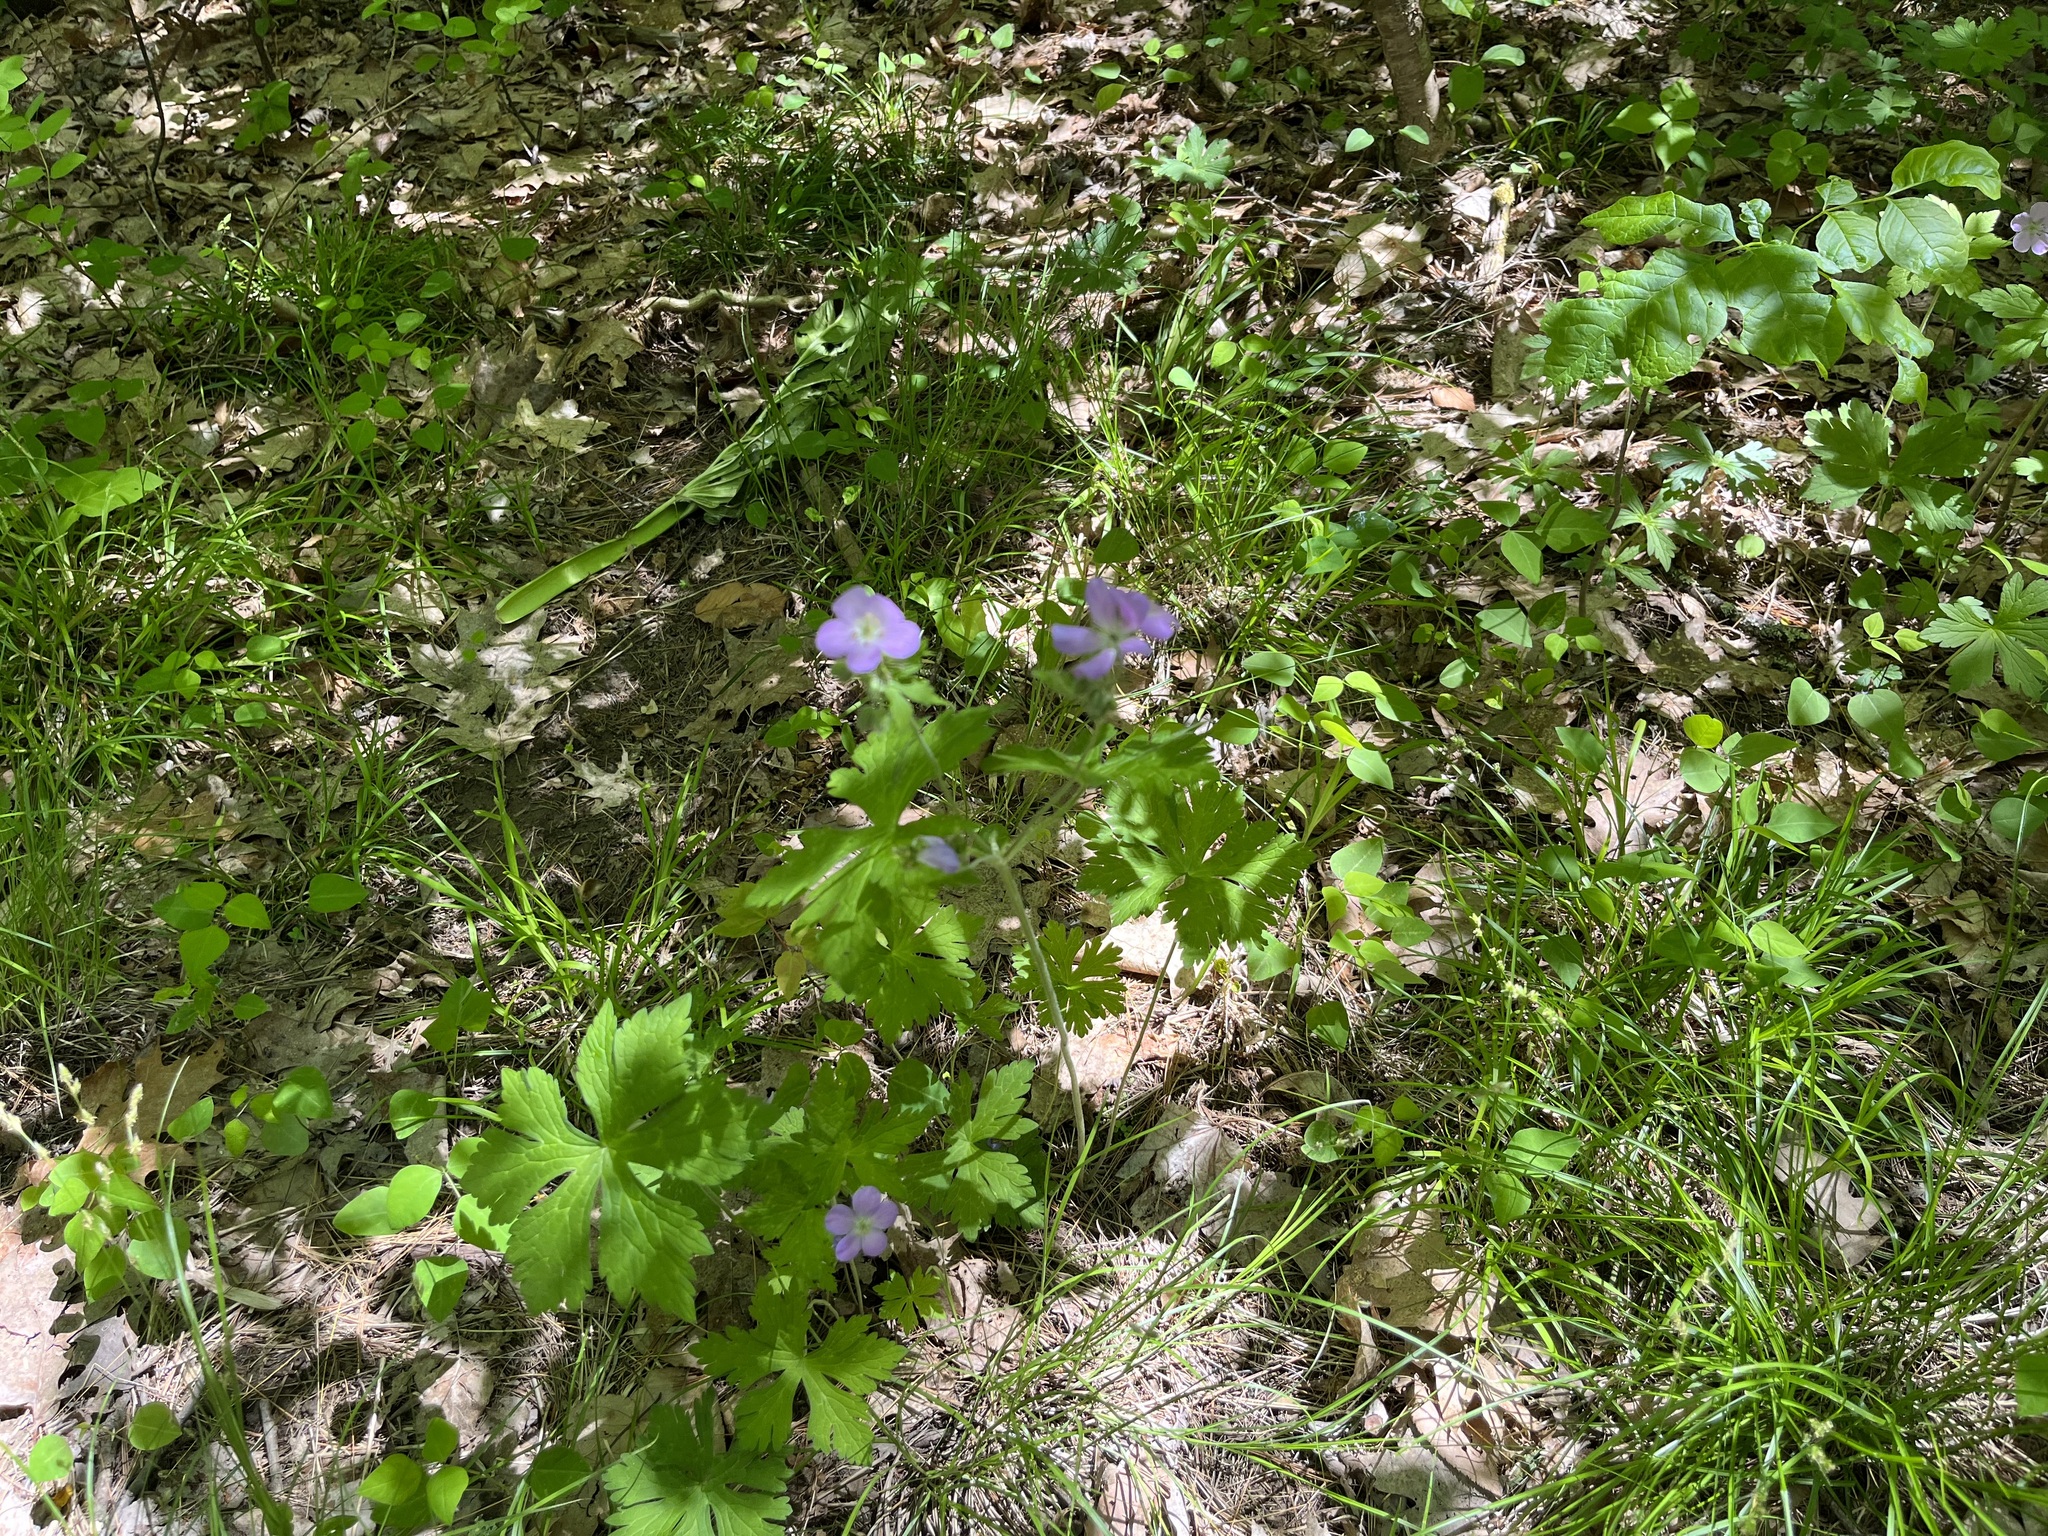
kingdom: Plantae
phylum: Tracheophyta
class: Magnoliopsida
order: Geraniales
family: Geraniaceae
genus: Geranium
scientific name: Geranium maculatum
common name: Spotted geranium
